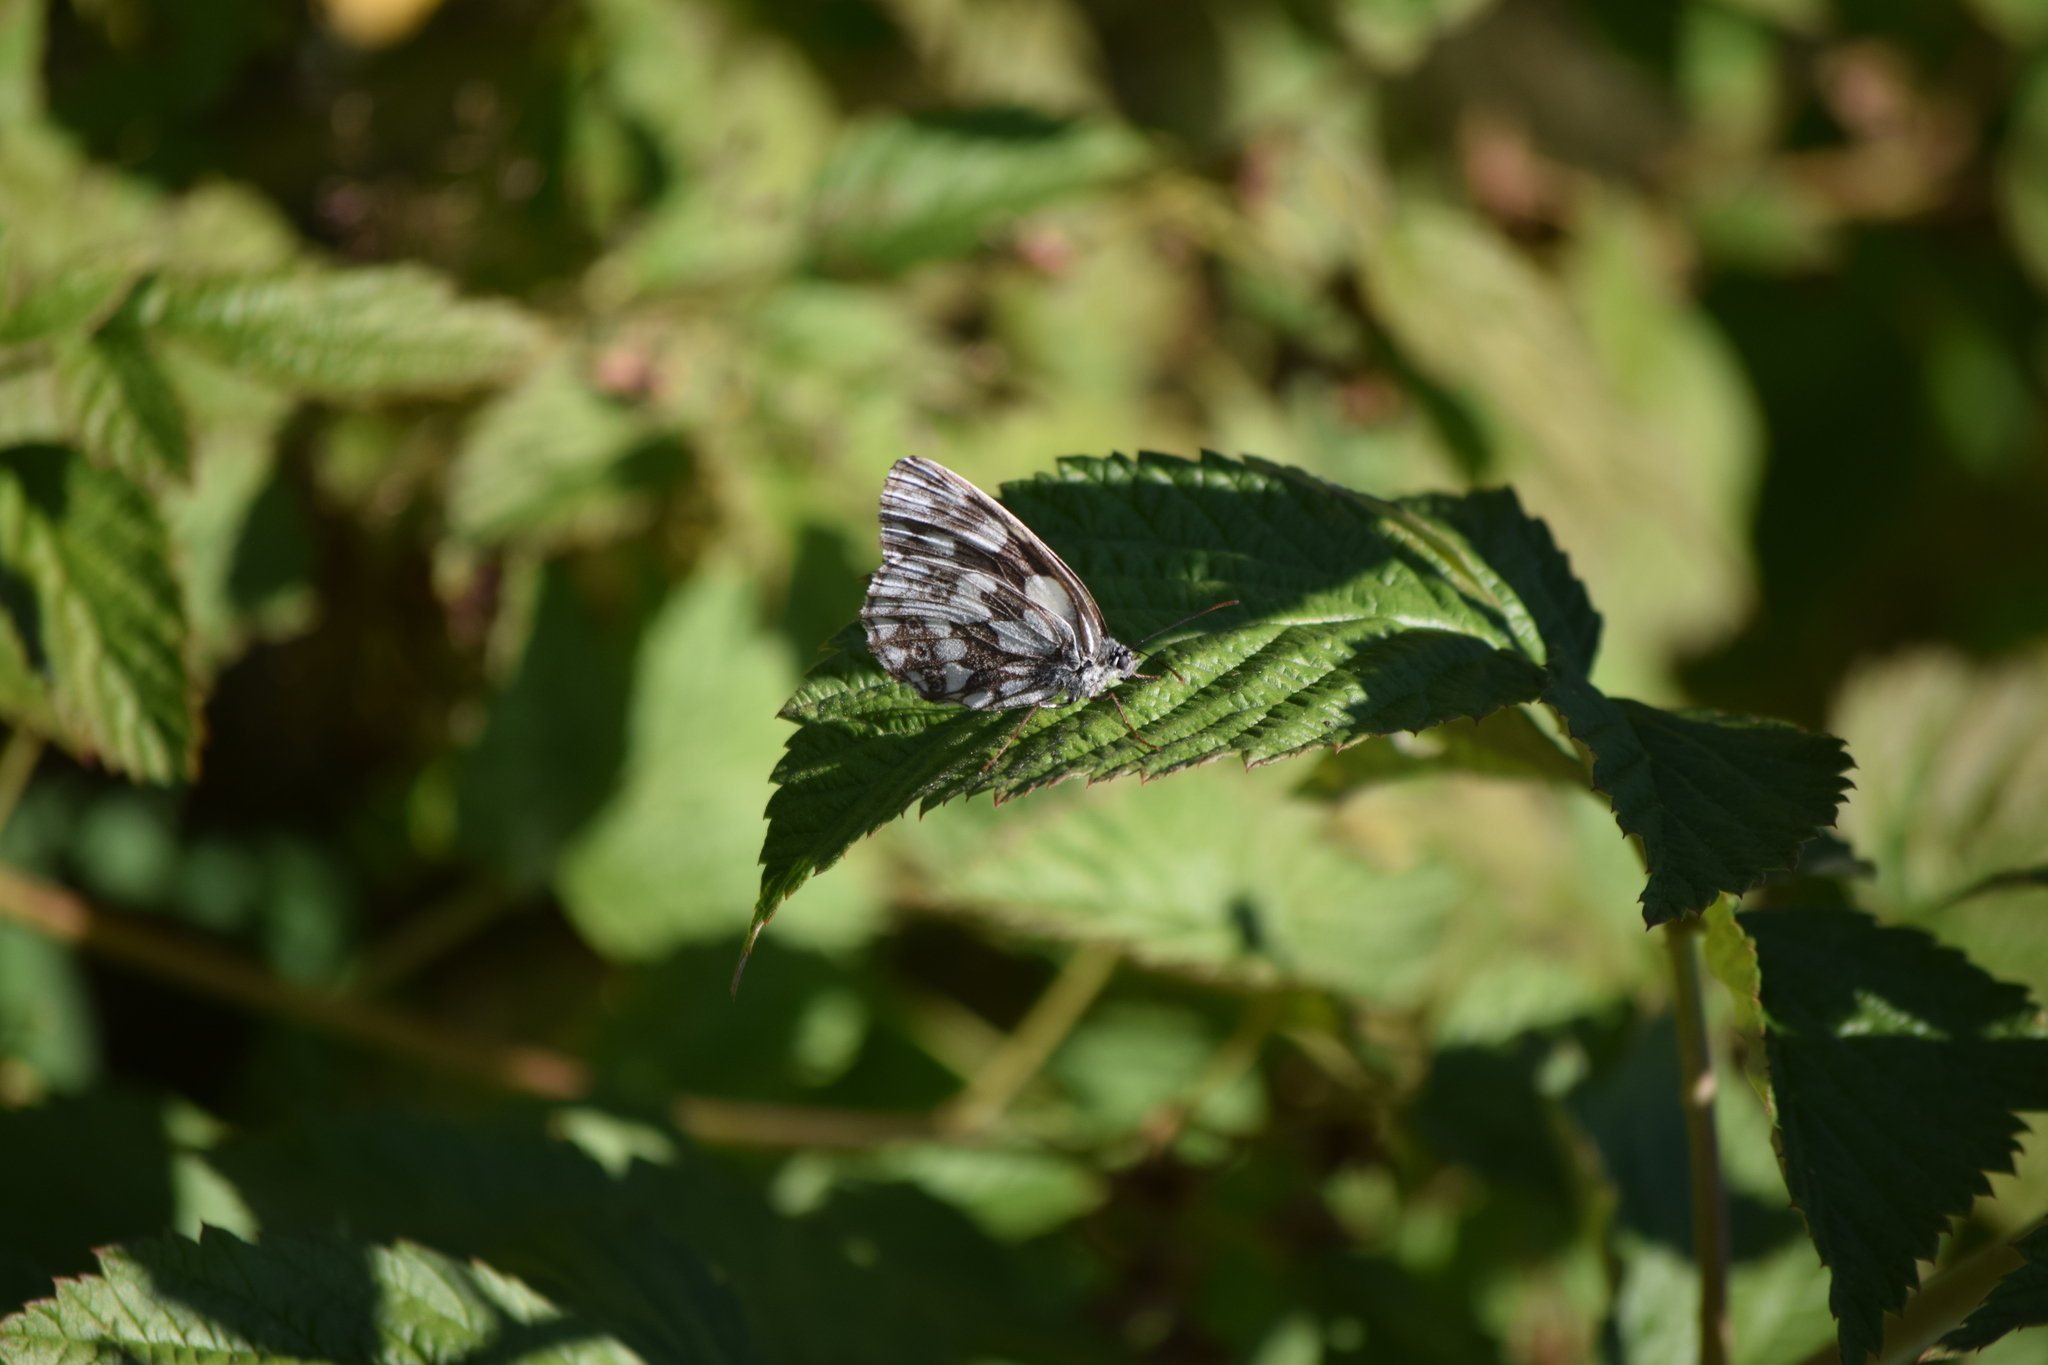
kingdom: Animalia
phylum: Arthropoda
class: Insecta
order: Lepidoptera
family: Nymphalidae
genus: Melanargia
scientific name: Melanargia galathea
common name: Marbled white
